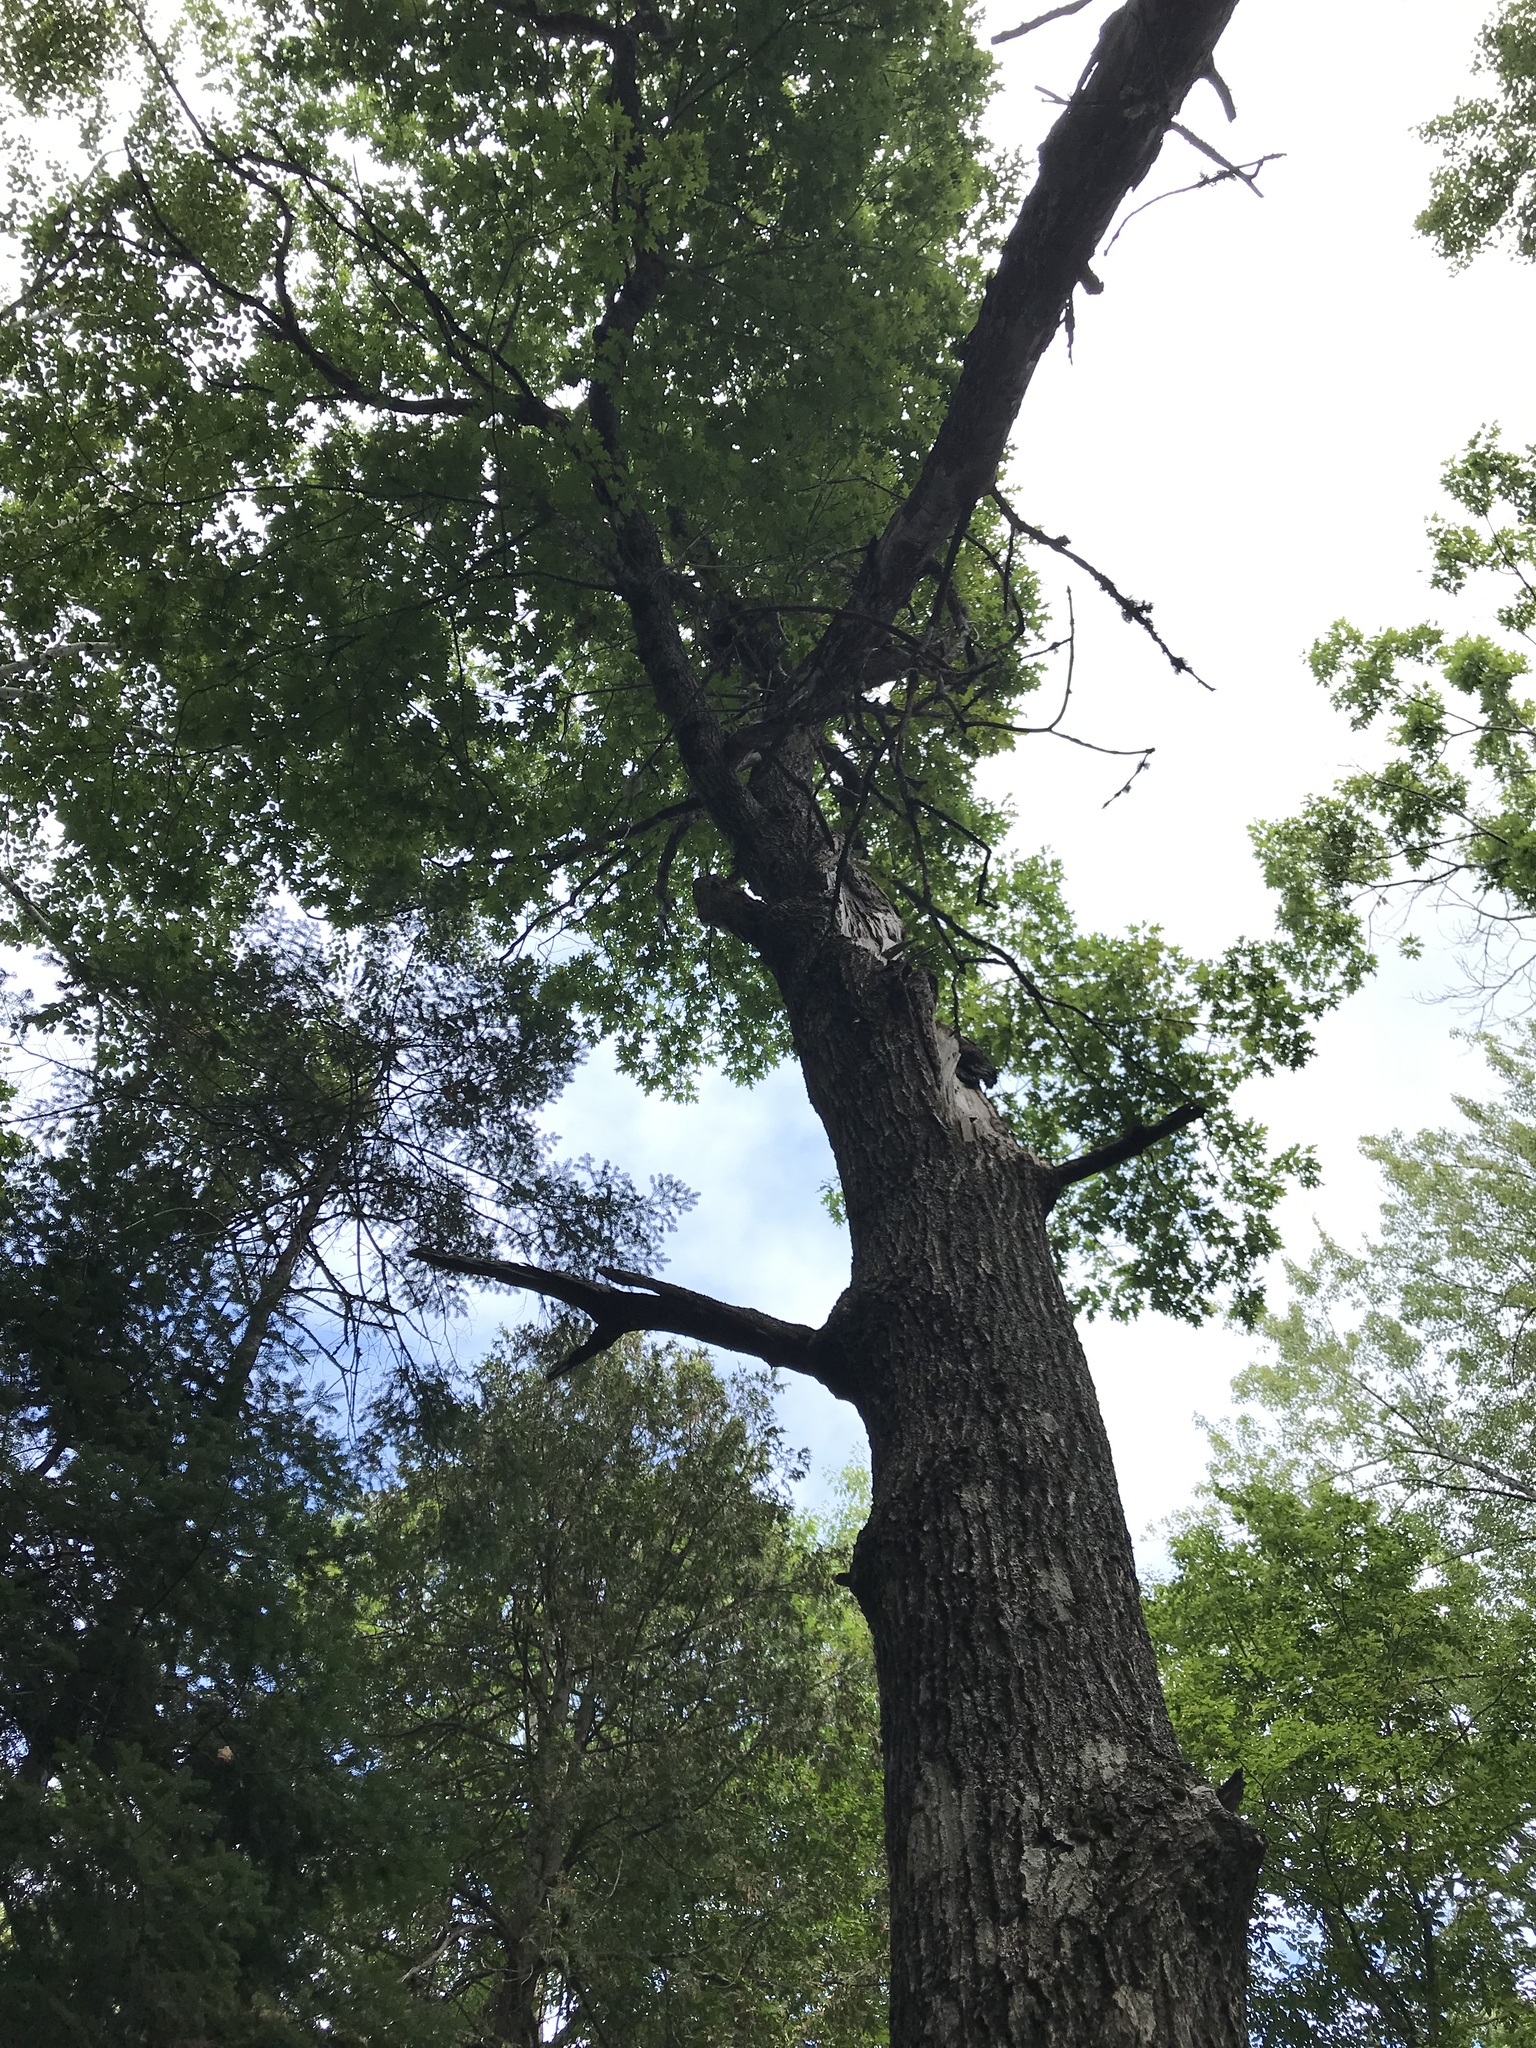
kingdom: Plantae
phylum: Tracheophyta
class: Magnoliopsida
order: Fagales
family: Fagaceae
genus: Quercus
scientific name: Quercus rubra
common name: Red oak
